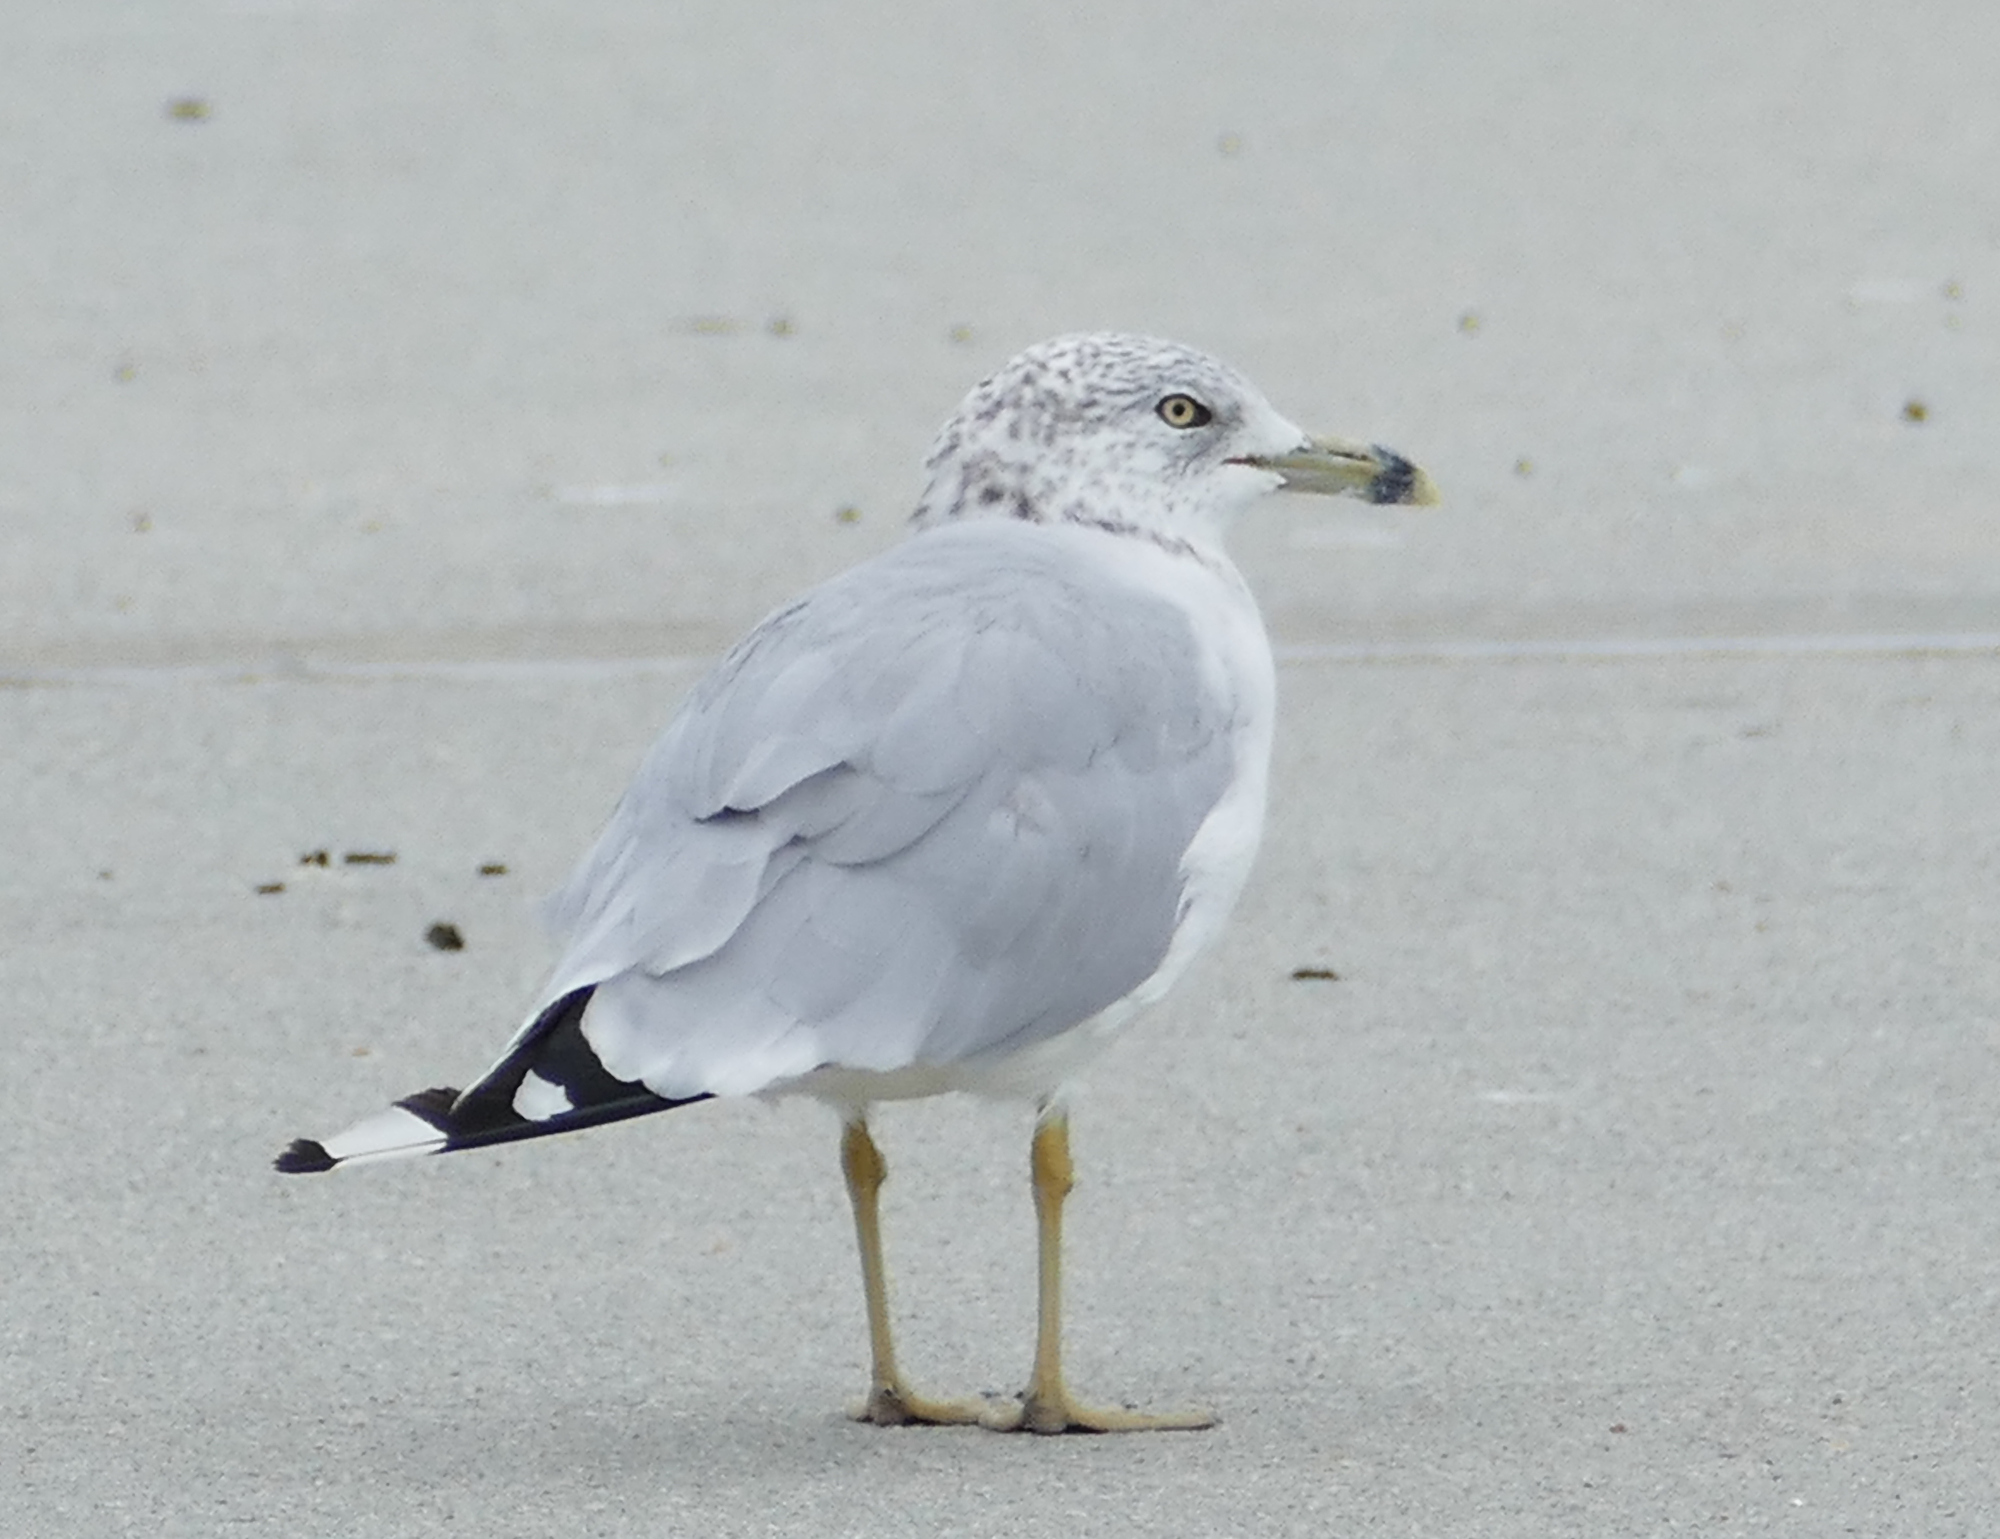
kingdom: Animalia
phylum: Chordata
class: Aves
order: Charadriiformes
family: Laridae
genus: Larus
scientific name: Larus delawarensis
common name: Ring-billed gull
